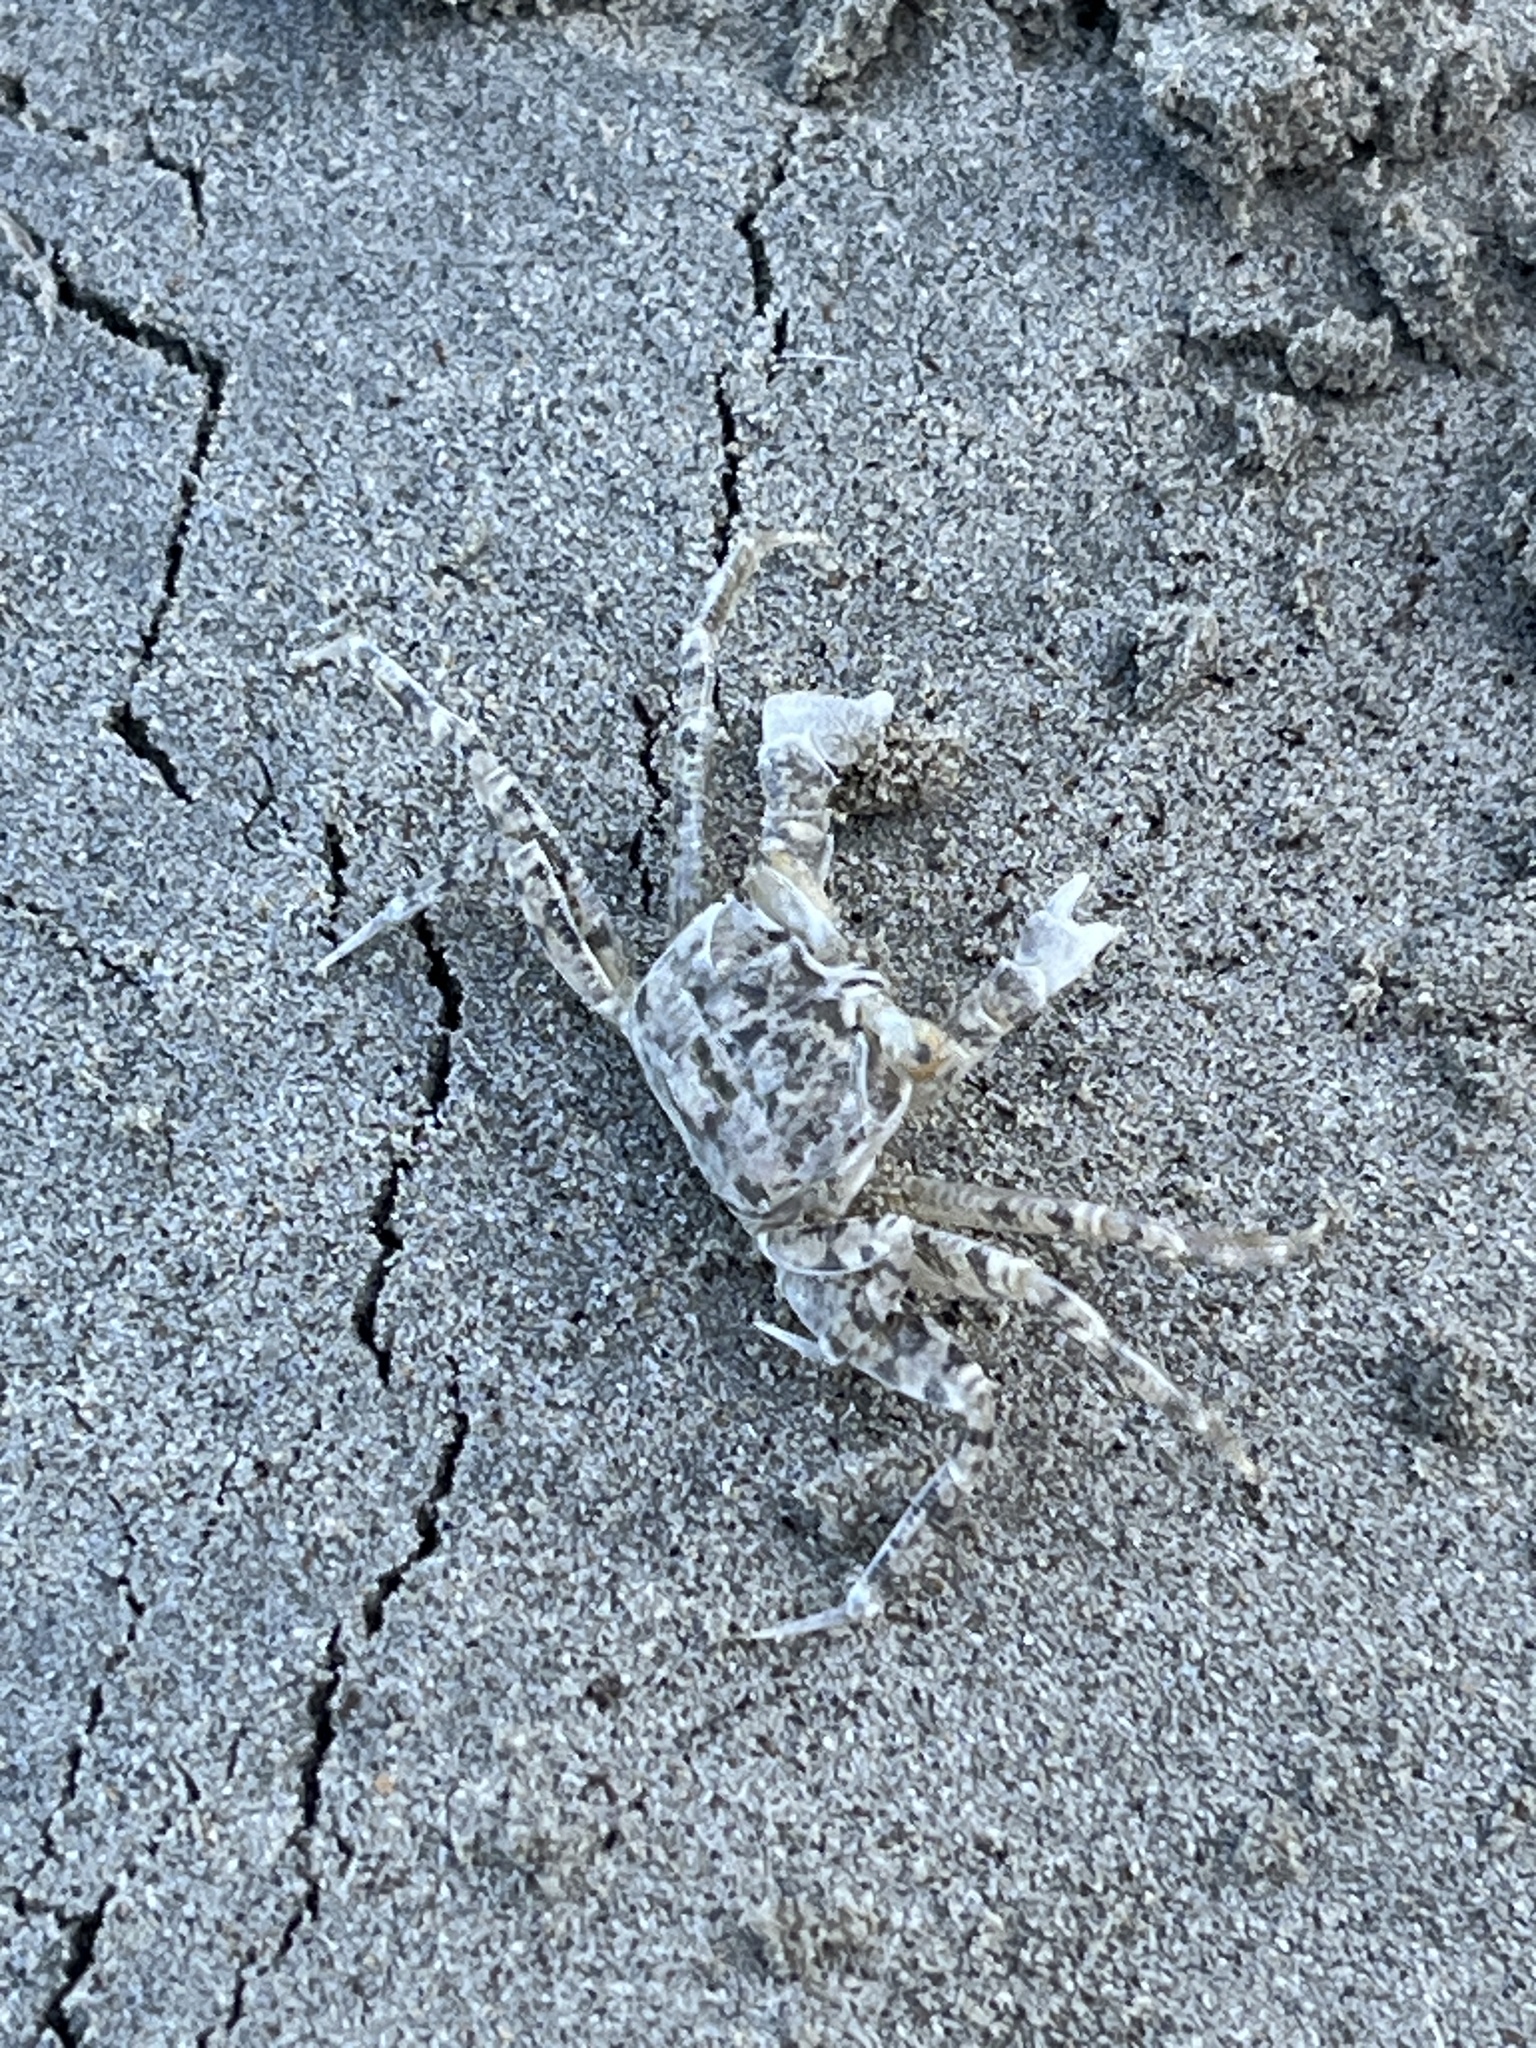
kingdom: Animalia
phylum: Arthropoda
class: Malacostraca
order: Decapoda
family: Ocypodidae
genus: Ocypode
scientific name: Ocypode
